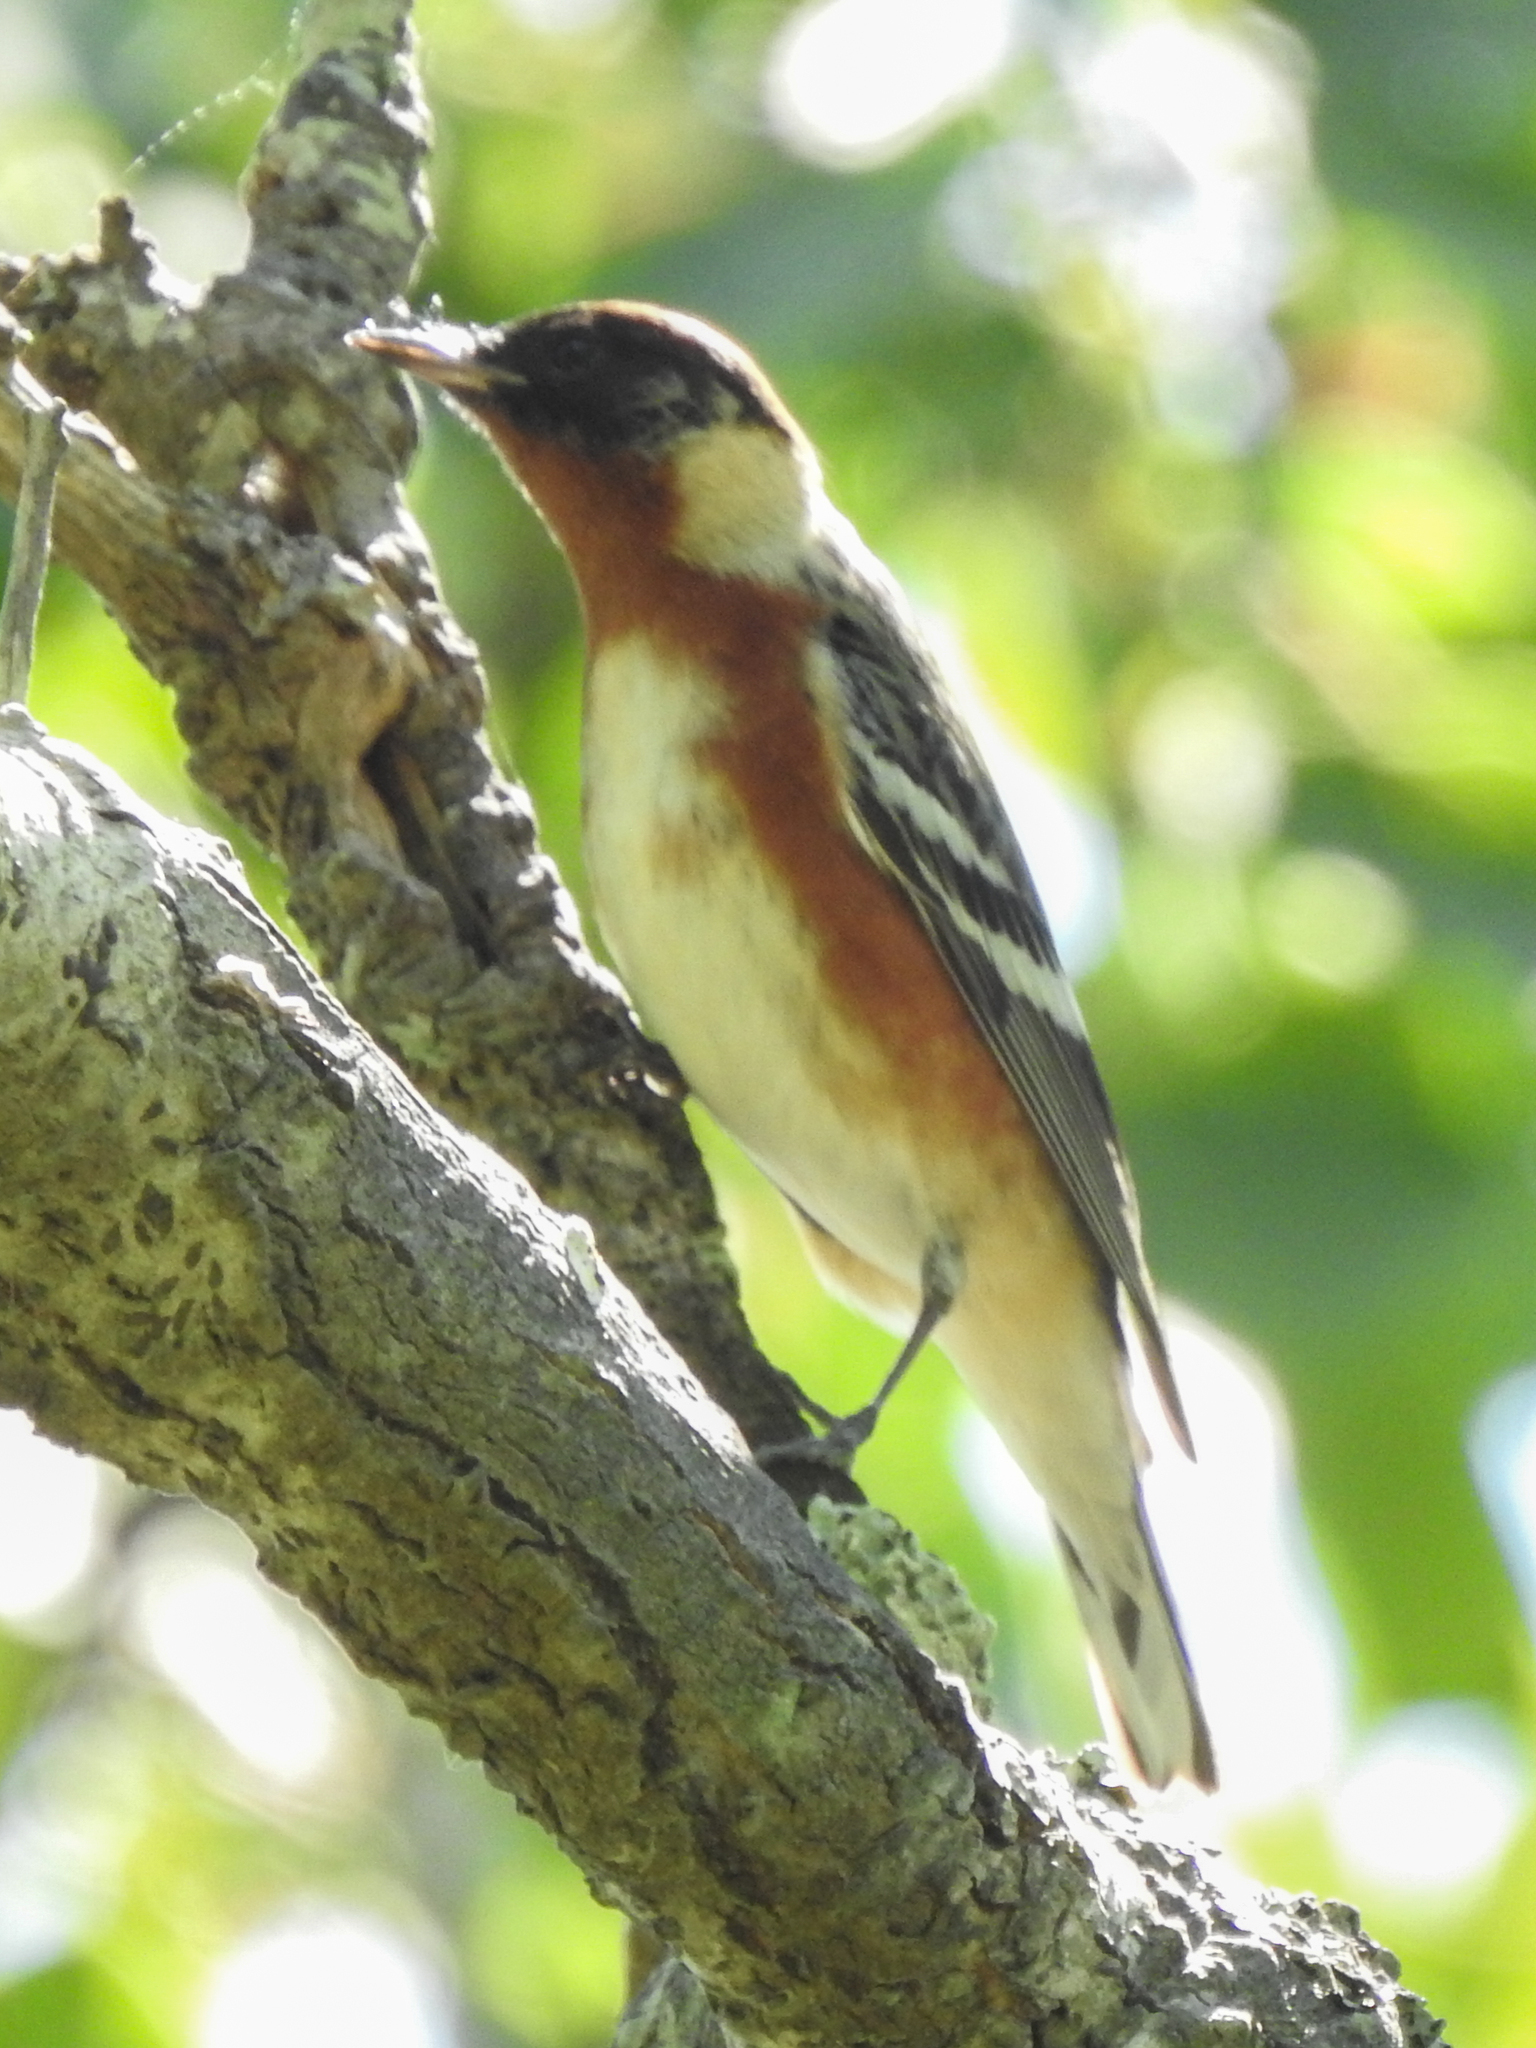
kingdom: Animalia
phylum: Chordata
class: Aves
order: Passeriformes
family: Parulidae
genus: Setophaga
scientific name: Setophaga castanea
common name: Bay-breasted warbler
